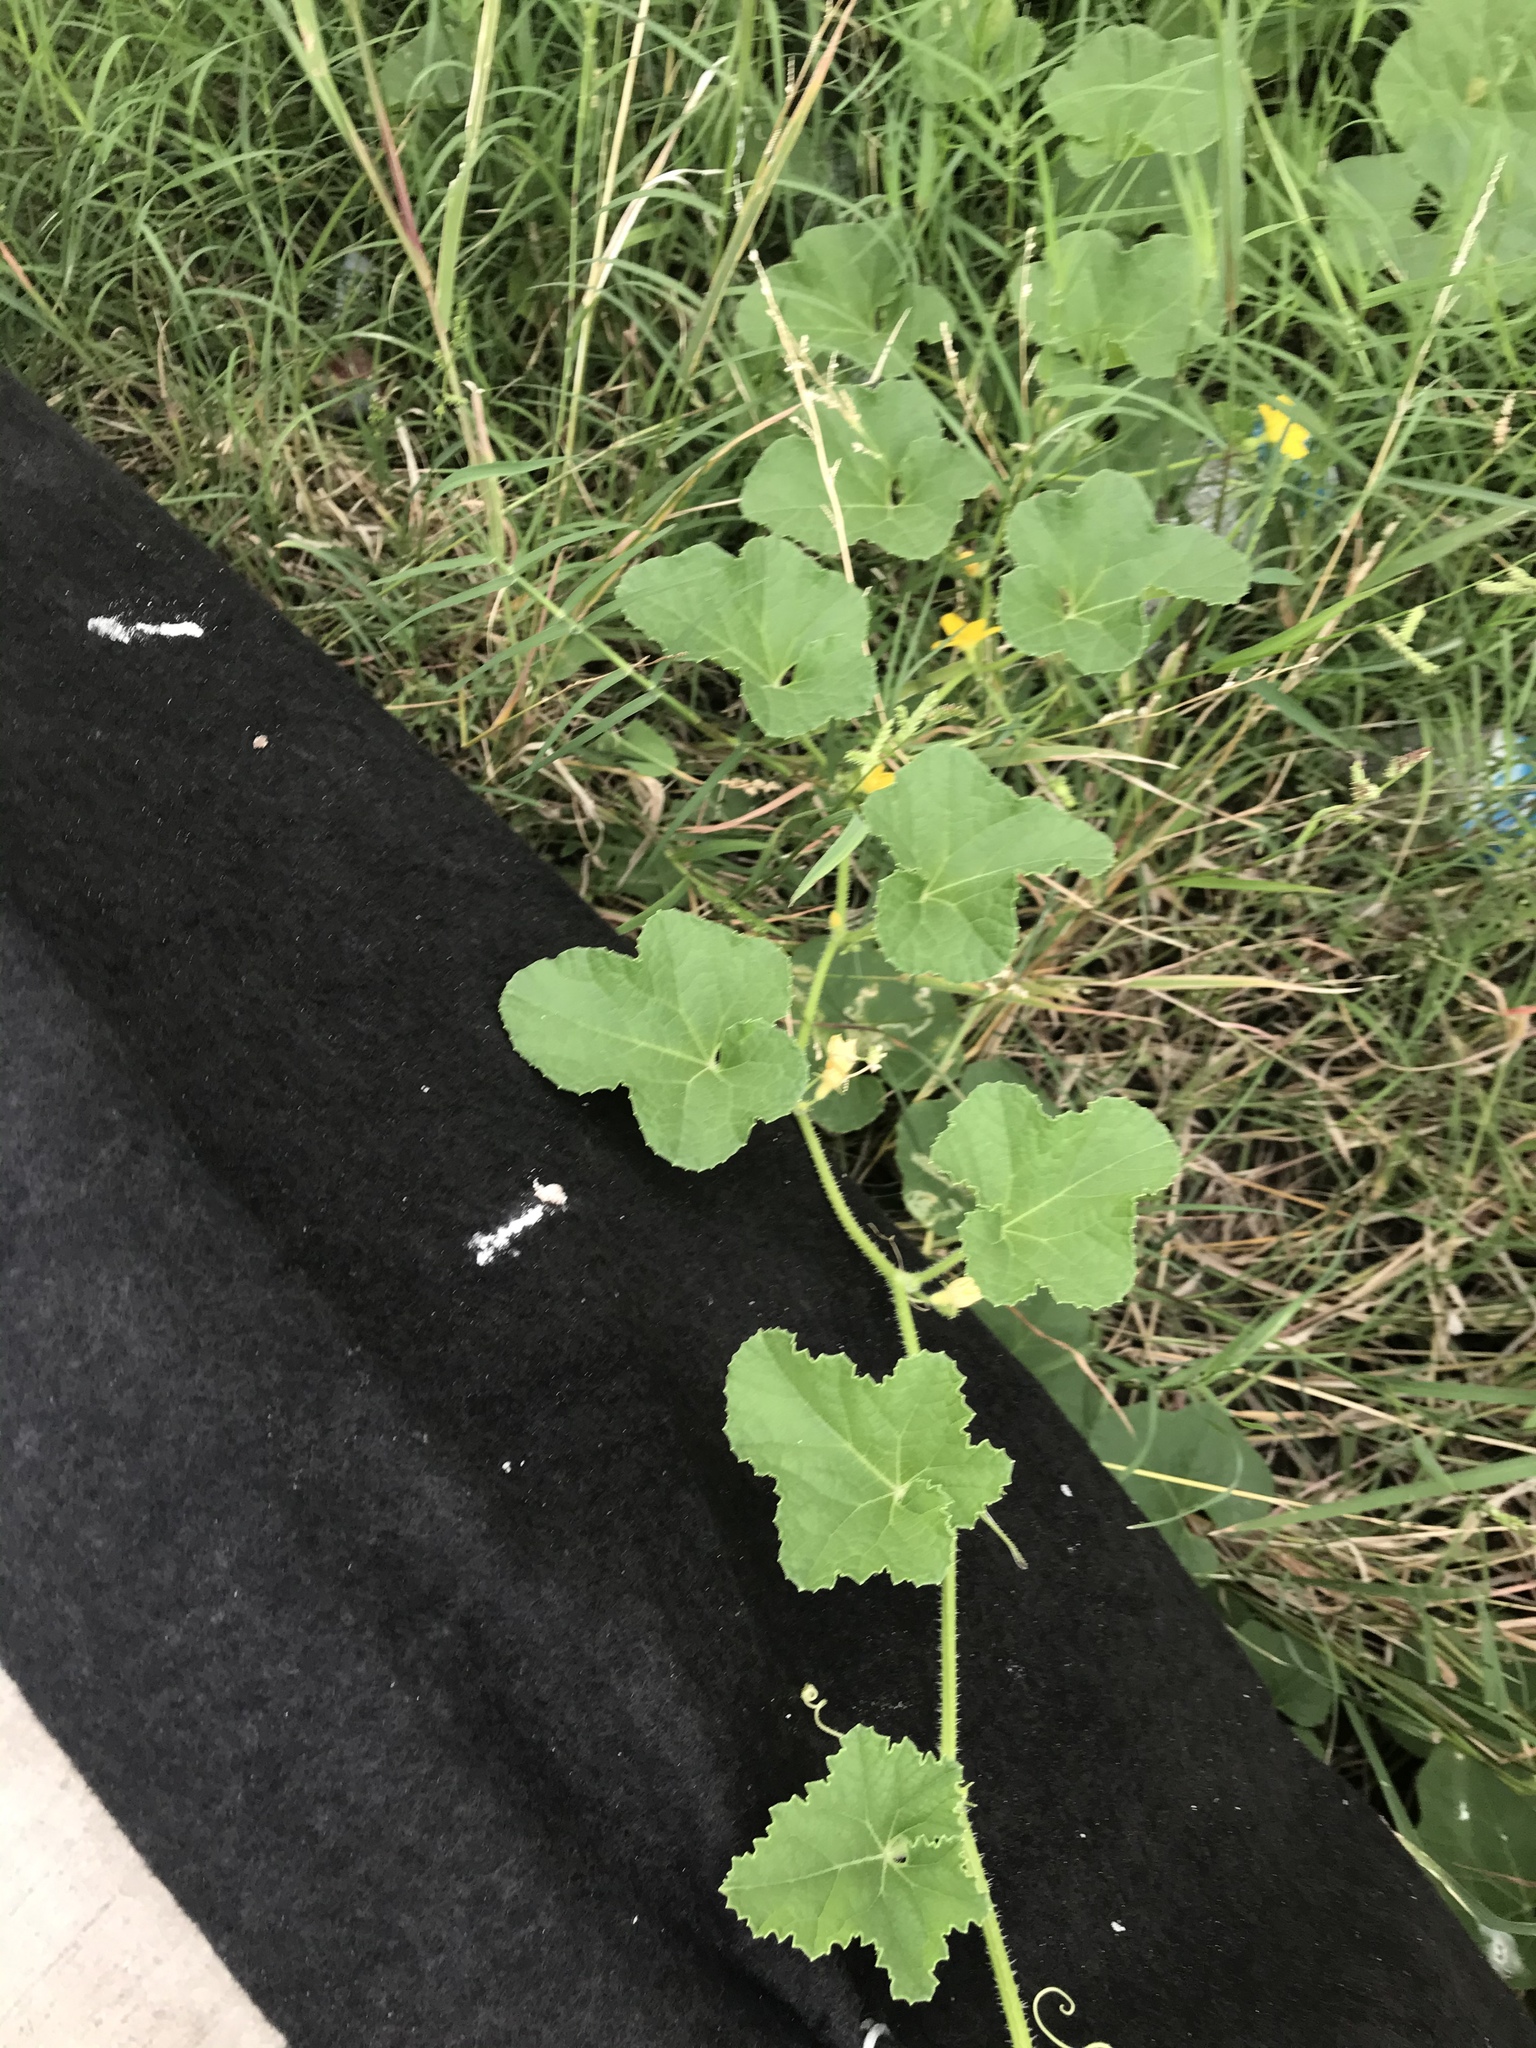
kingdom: Plantae
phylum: Tracheophyta
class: Magnoliopsida
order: Cucurbitales
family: Cucurbitaceae
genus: Cucumis
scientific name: Cucumis melo
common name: Melon
